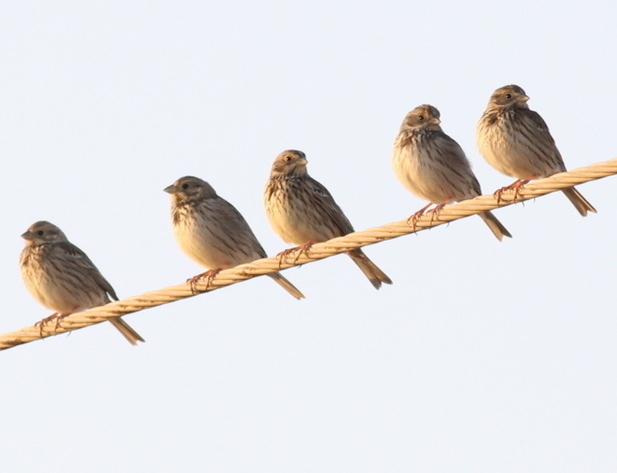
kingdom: Animalia
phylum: Chordata
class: Aves
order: Passeriformes
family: Emberizidae
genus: Emberiza
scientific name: Emberiza calandra
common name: Corn bunting
